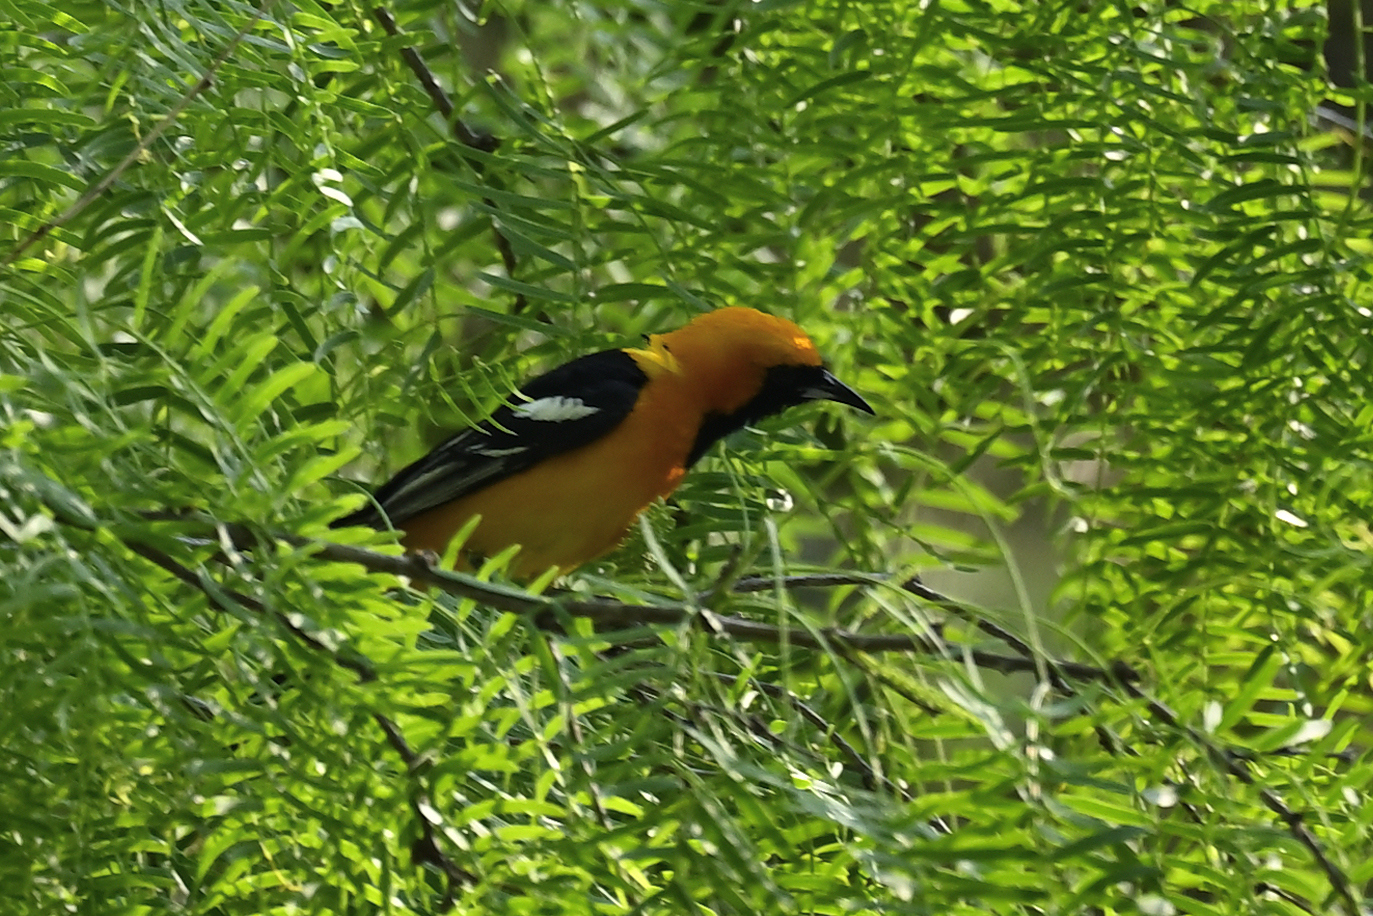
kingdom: Animalia
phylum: Chordata
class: Aves
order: Passeriformes
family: Icteridae
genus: Icterus
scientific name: Icterus cucullatus
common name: Hooded oriole
